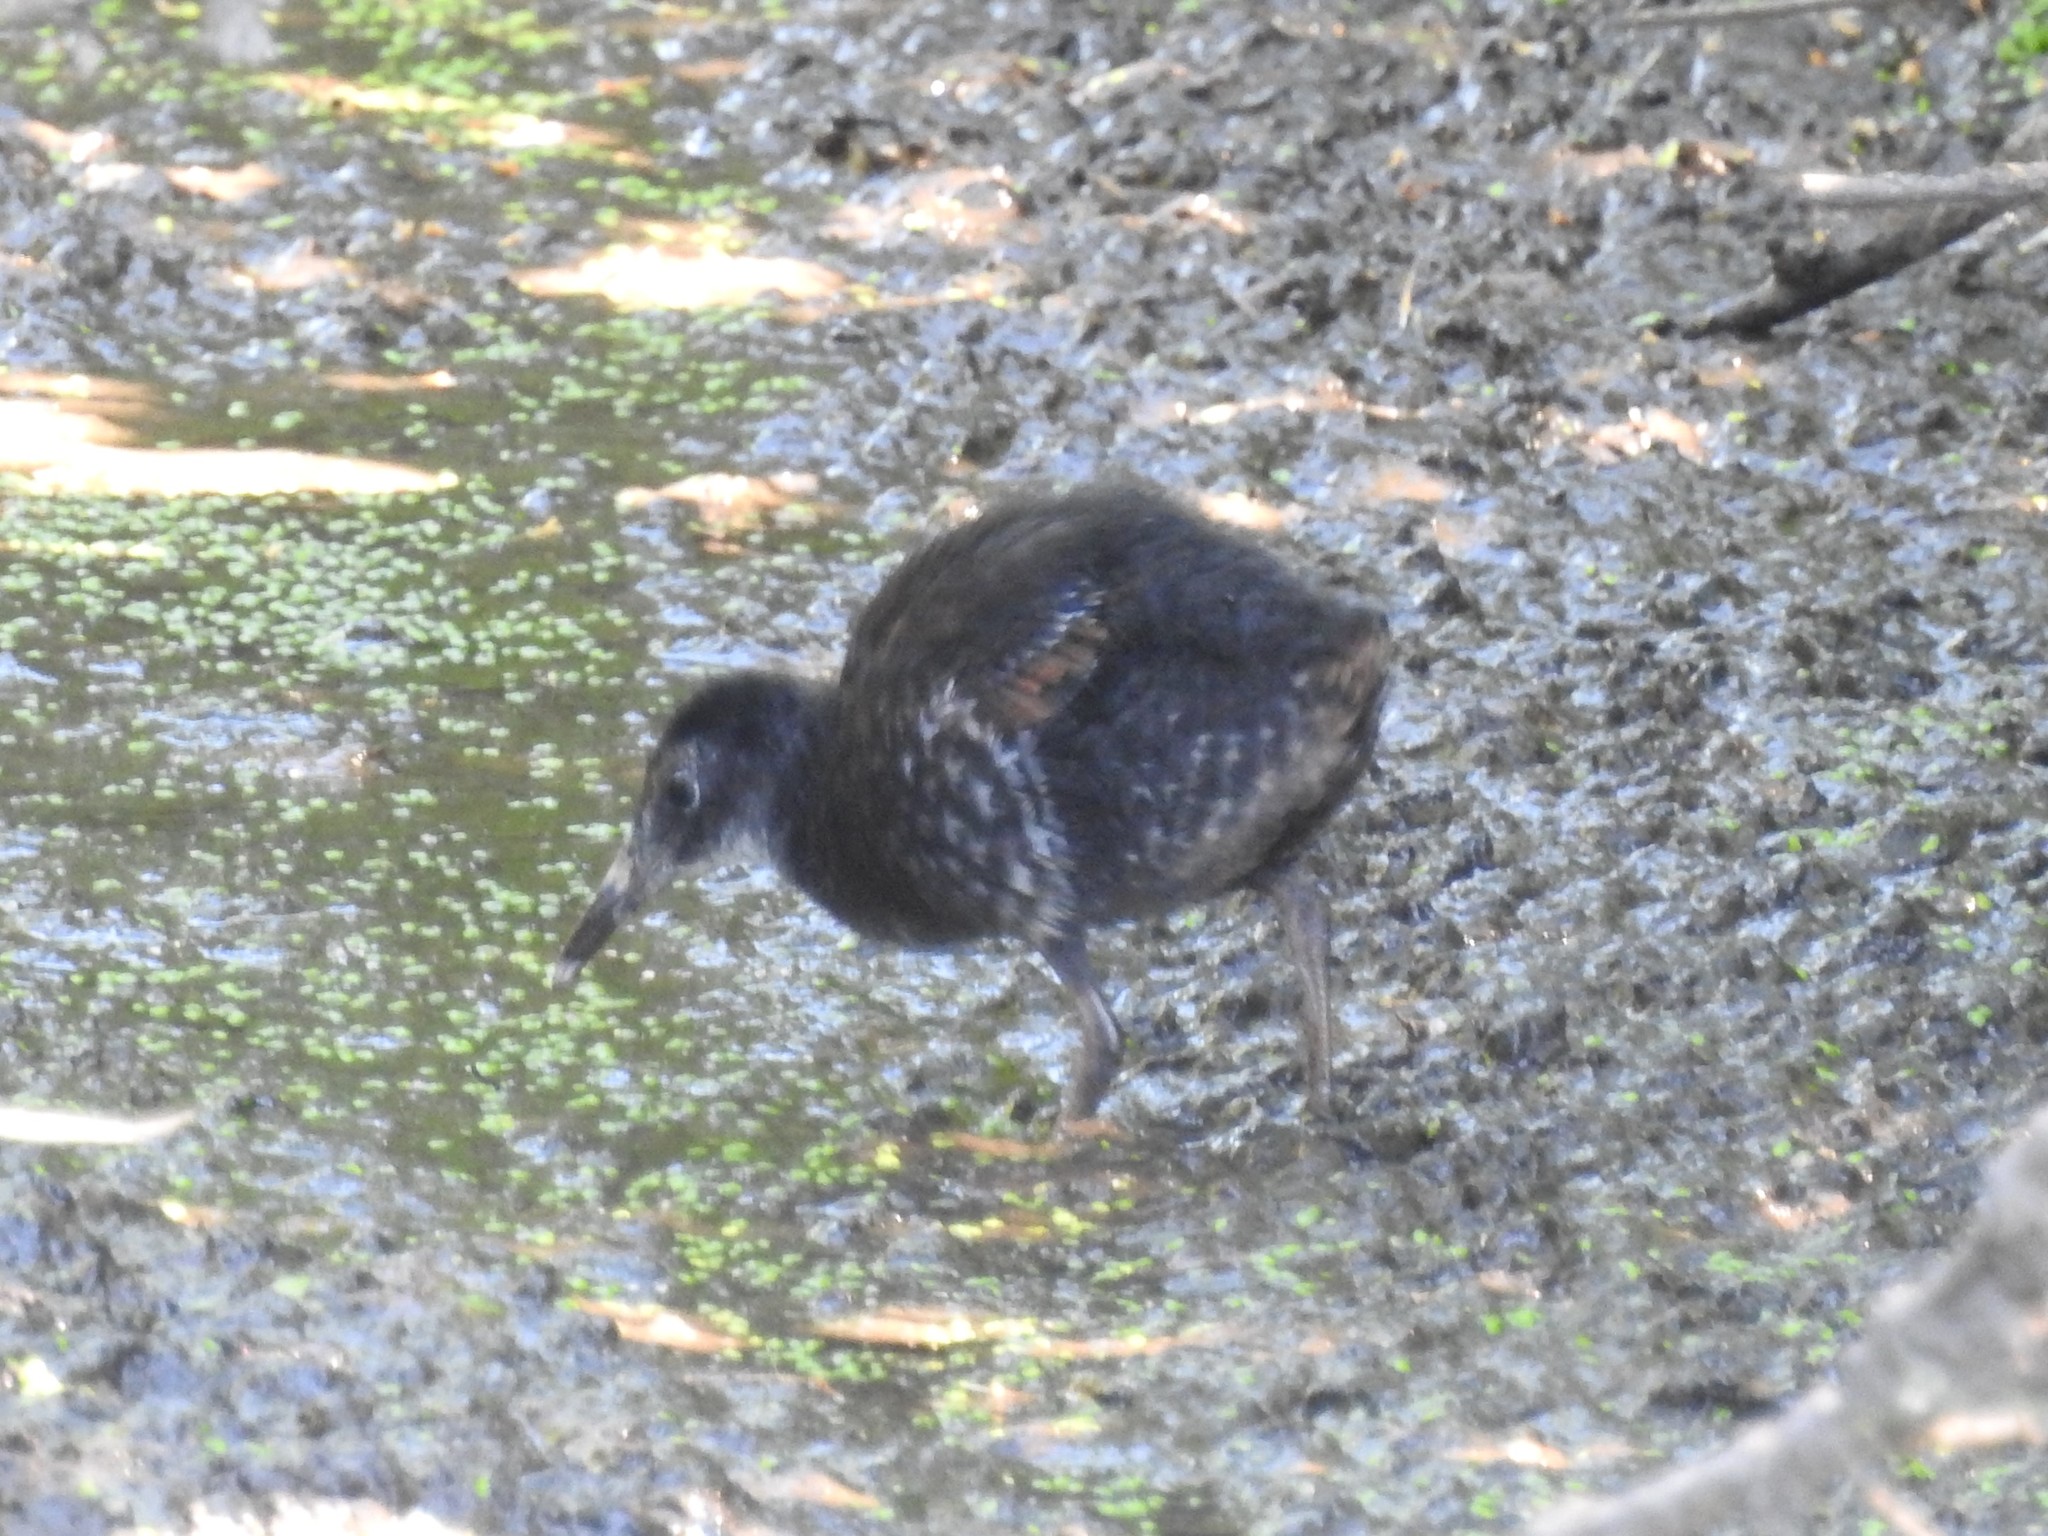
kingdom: Animalia
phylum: Chordata
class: Aves
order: Gruiformes
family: Rallidae
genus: Rallus
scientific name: Rallus limicola
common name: Virginia rail
